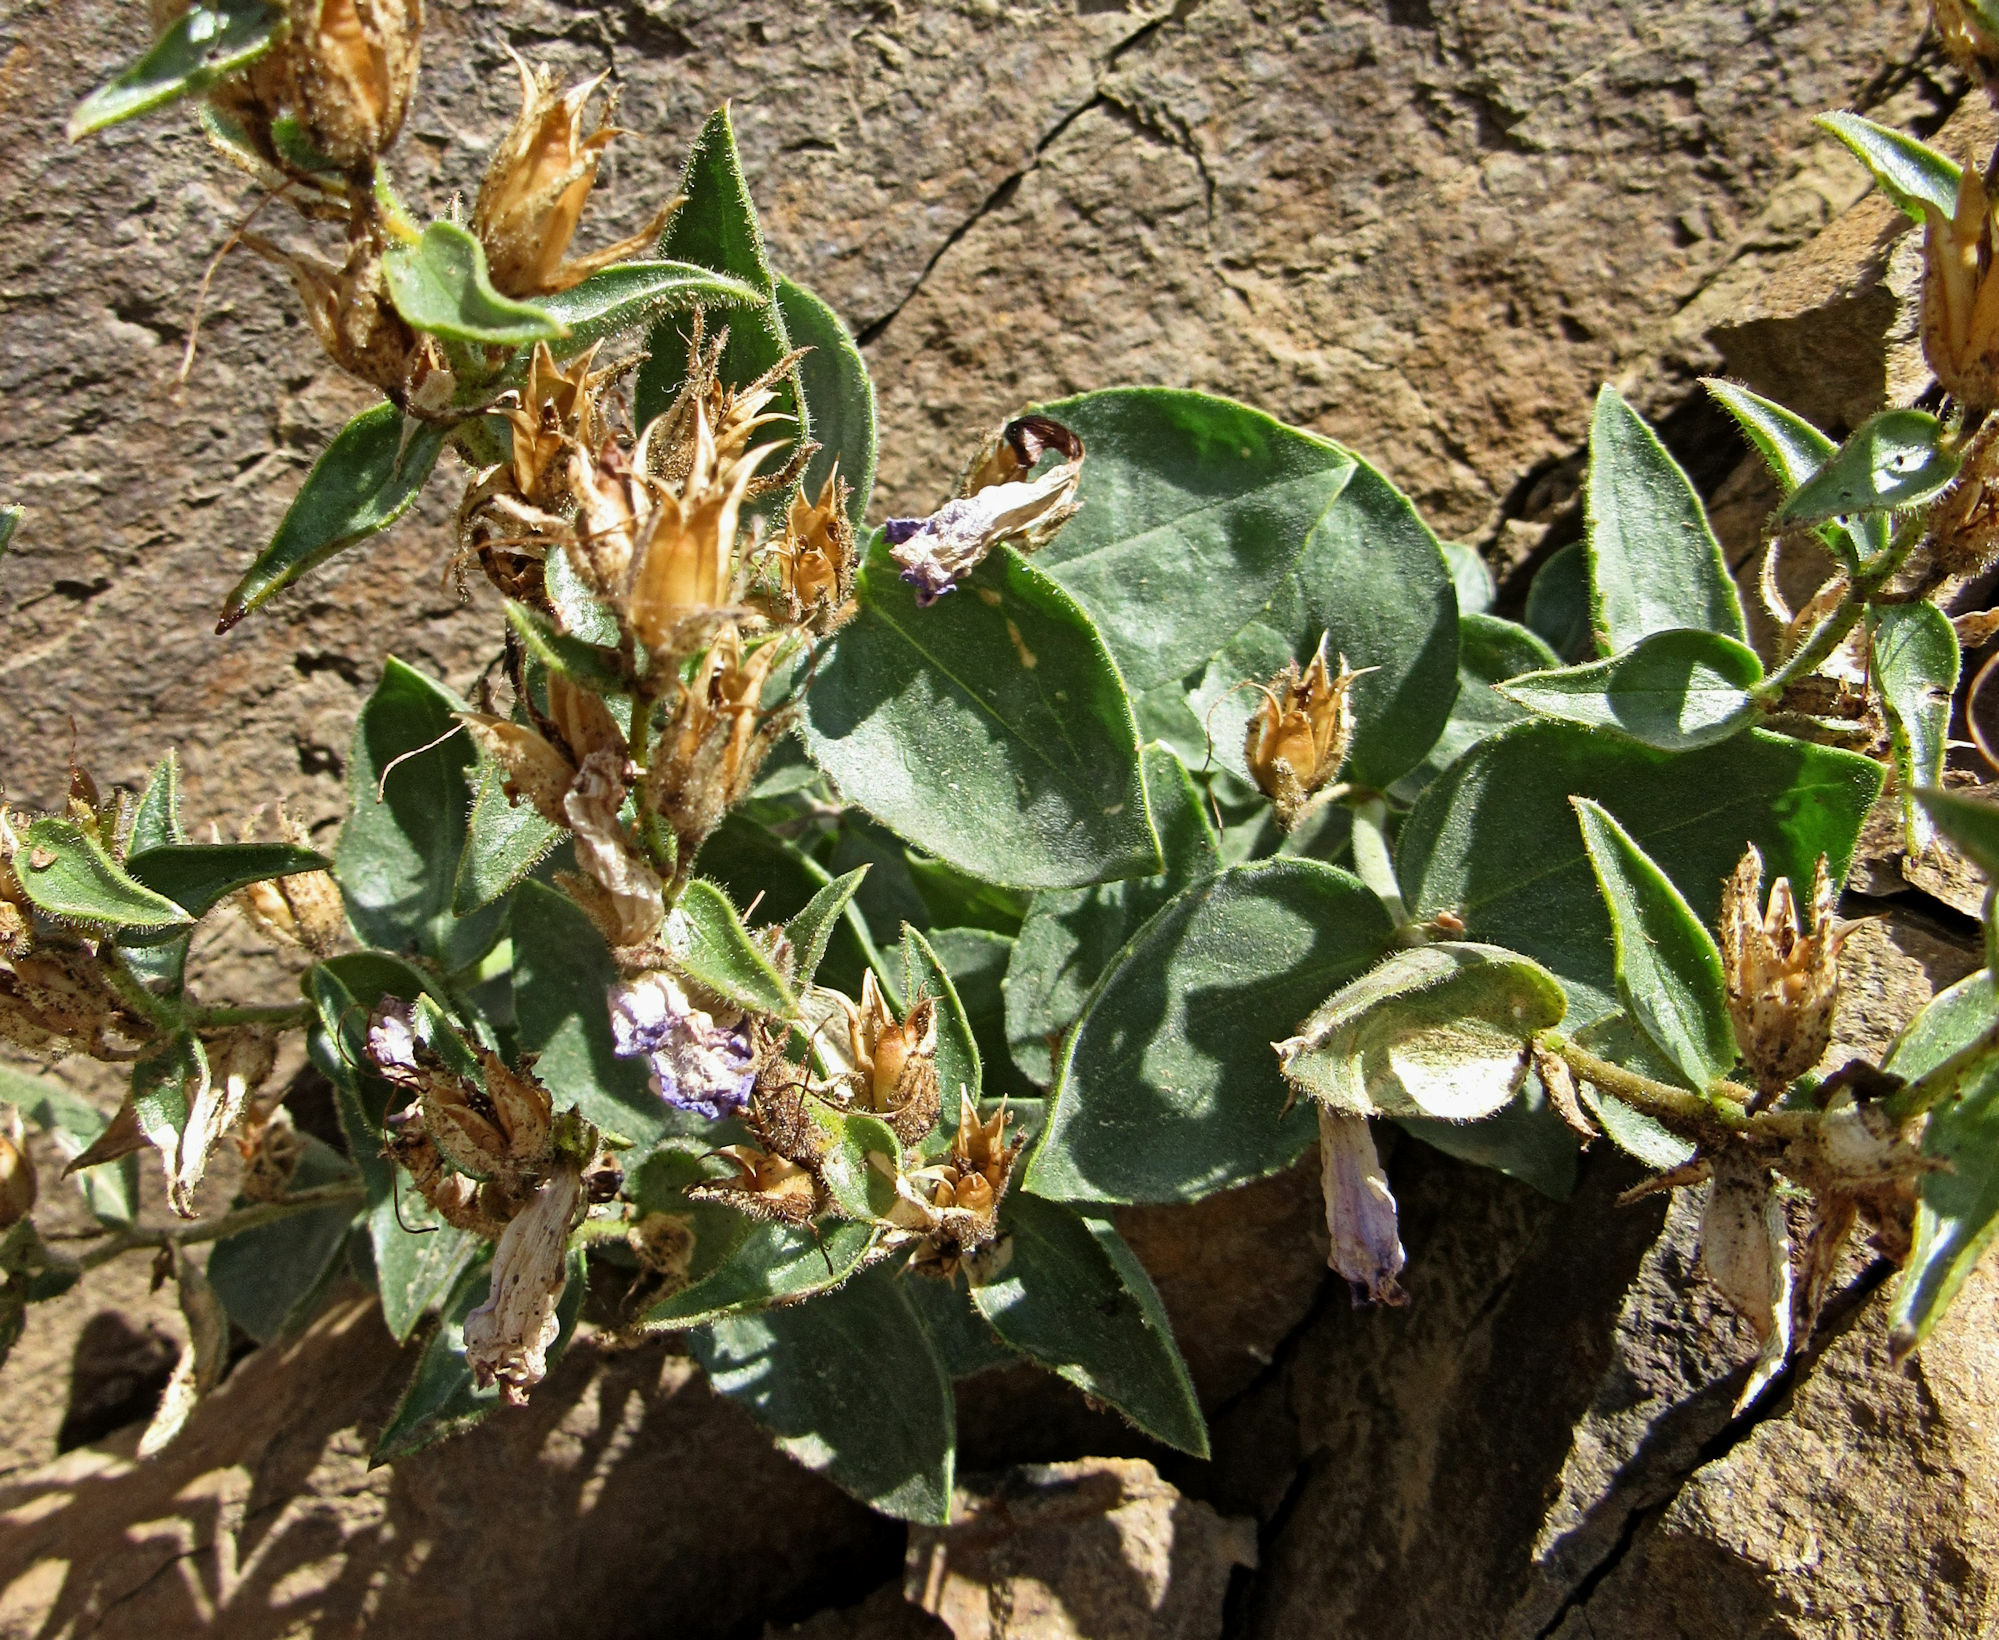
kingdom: Plantae
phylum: Tracheophyta
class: Magnoliopsida
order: Lamiales
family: Plantaginaceae
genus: Penstemon
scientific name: Penstemon montanus
